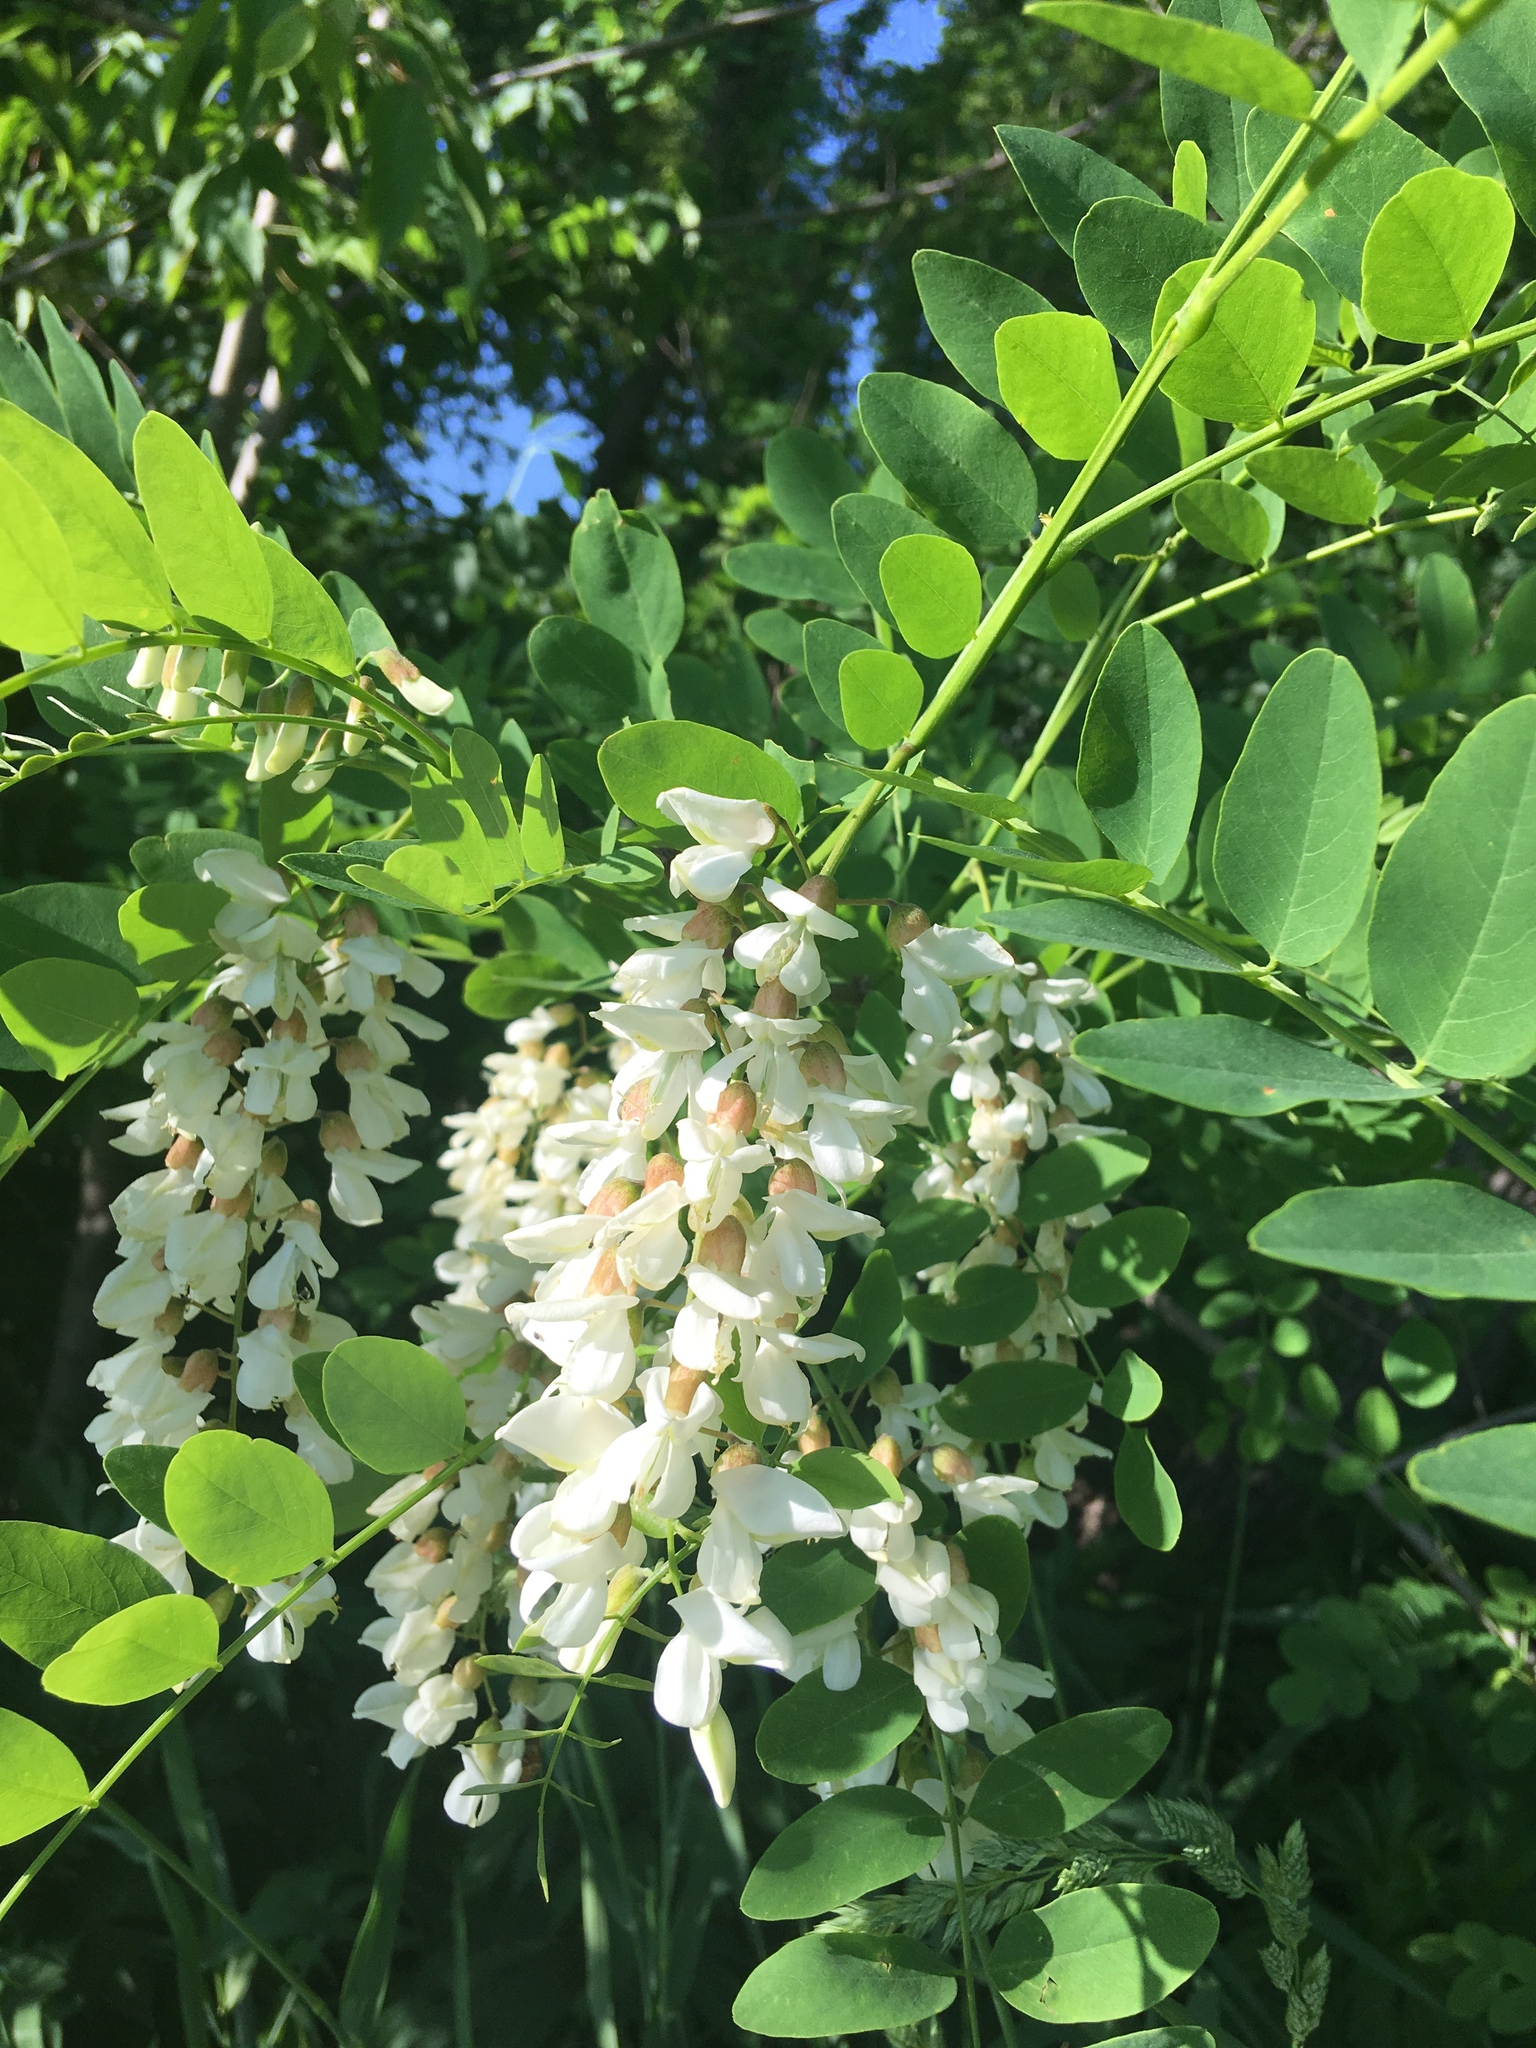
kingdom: Plantae
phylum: Tracheophyta
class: Magnoliopsida
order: Fabales
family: Fabaceae
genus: Robinia
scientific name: Robinia pseudoacacia
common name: Black locust
